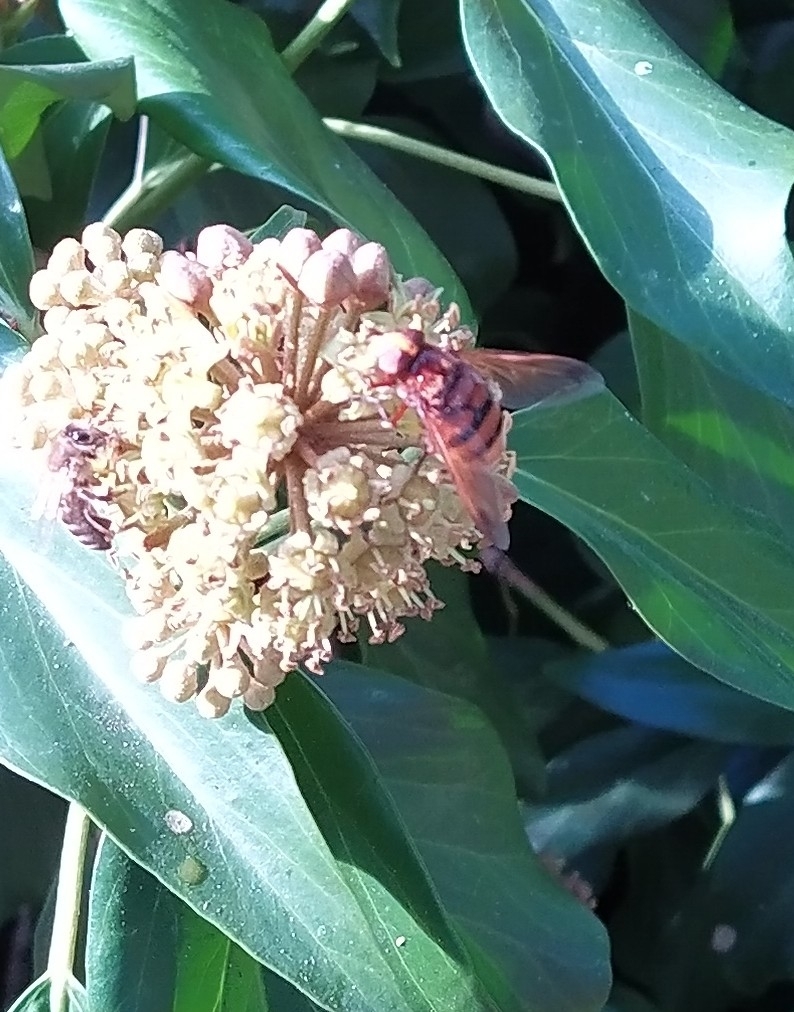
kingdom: Animalia
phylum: Arthropoda
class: Insecta
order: Diptera
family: Syrphidae
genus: Volucella
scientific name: Volucella zonaria
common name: Hornet hoverfly
